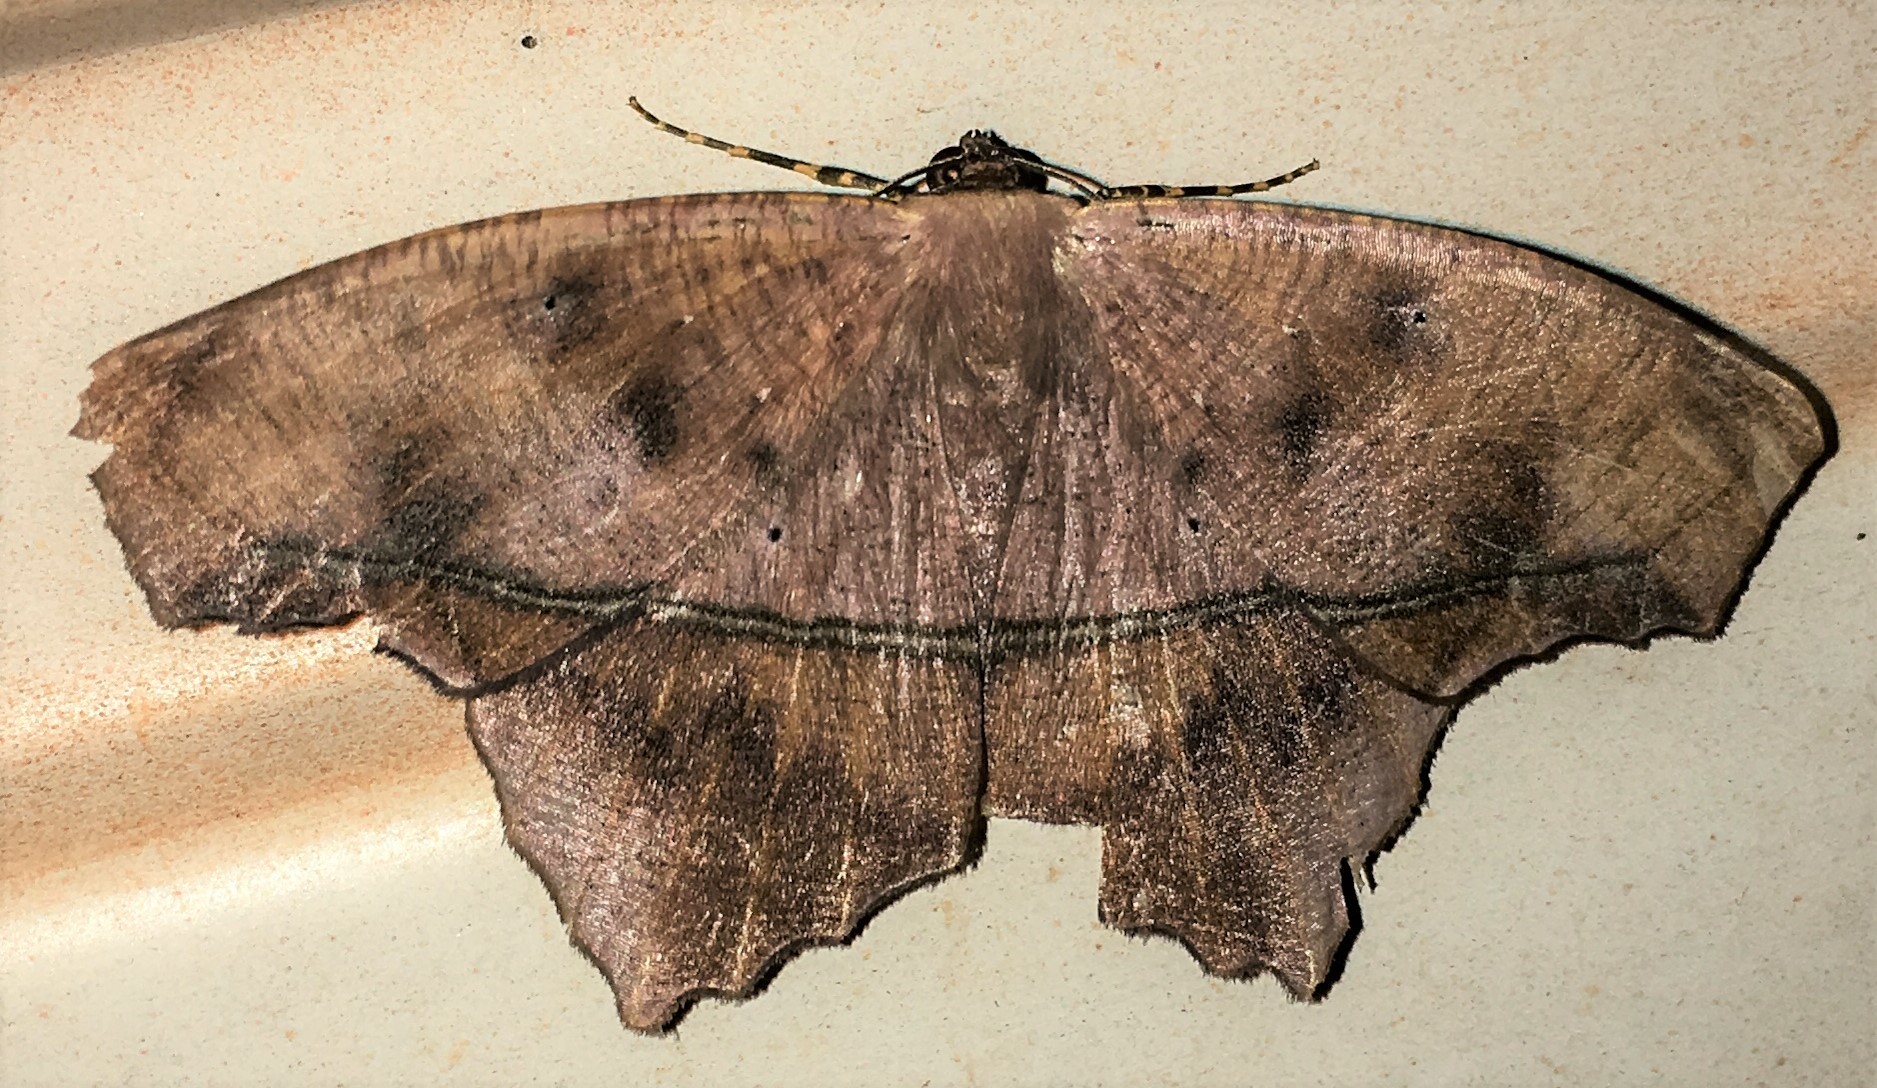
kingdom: Animalia
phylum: Arthropoda
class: Insecta
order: Lepidoptera
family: Geometridae
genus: Trotopera
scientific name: Trotopera maranharia
